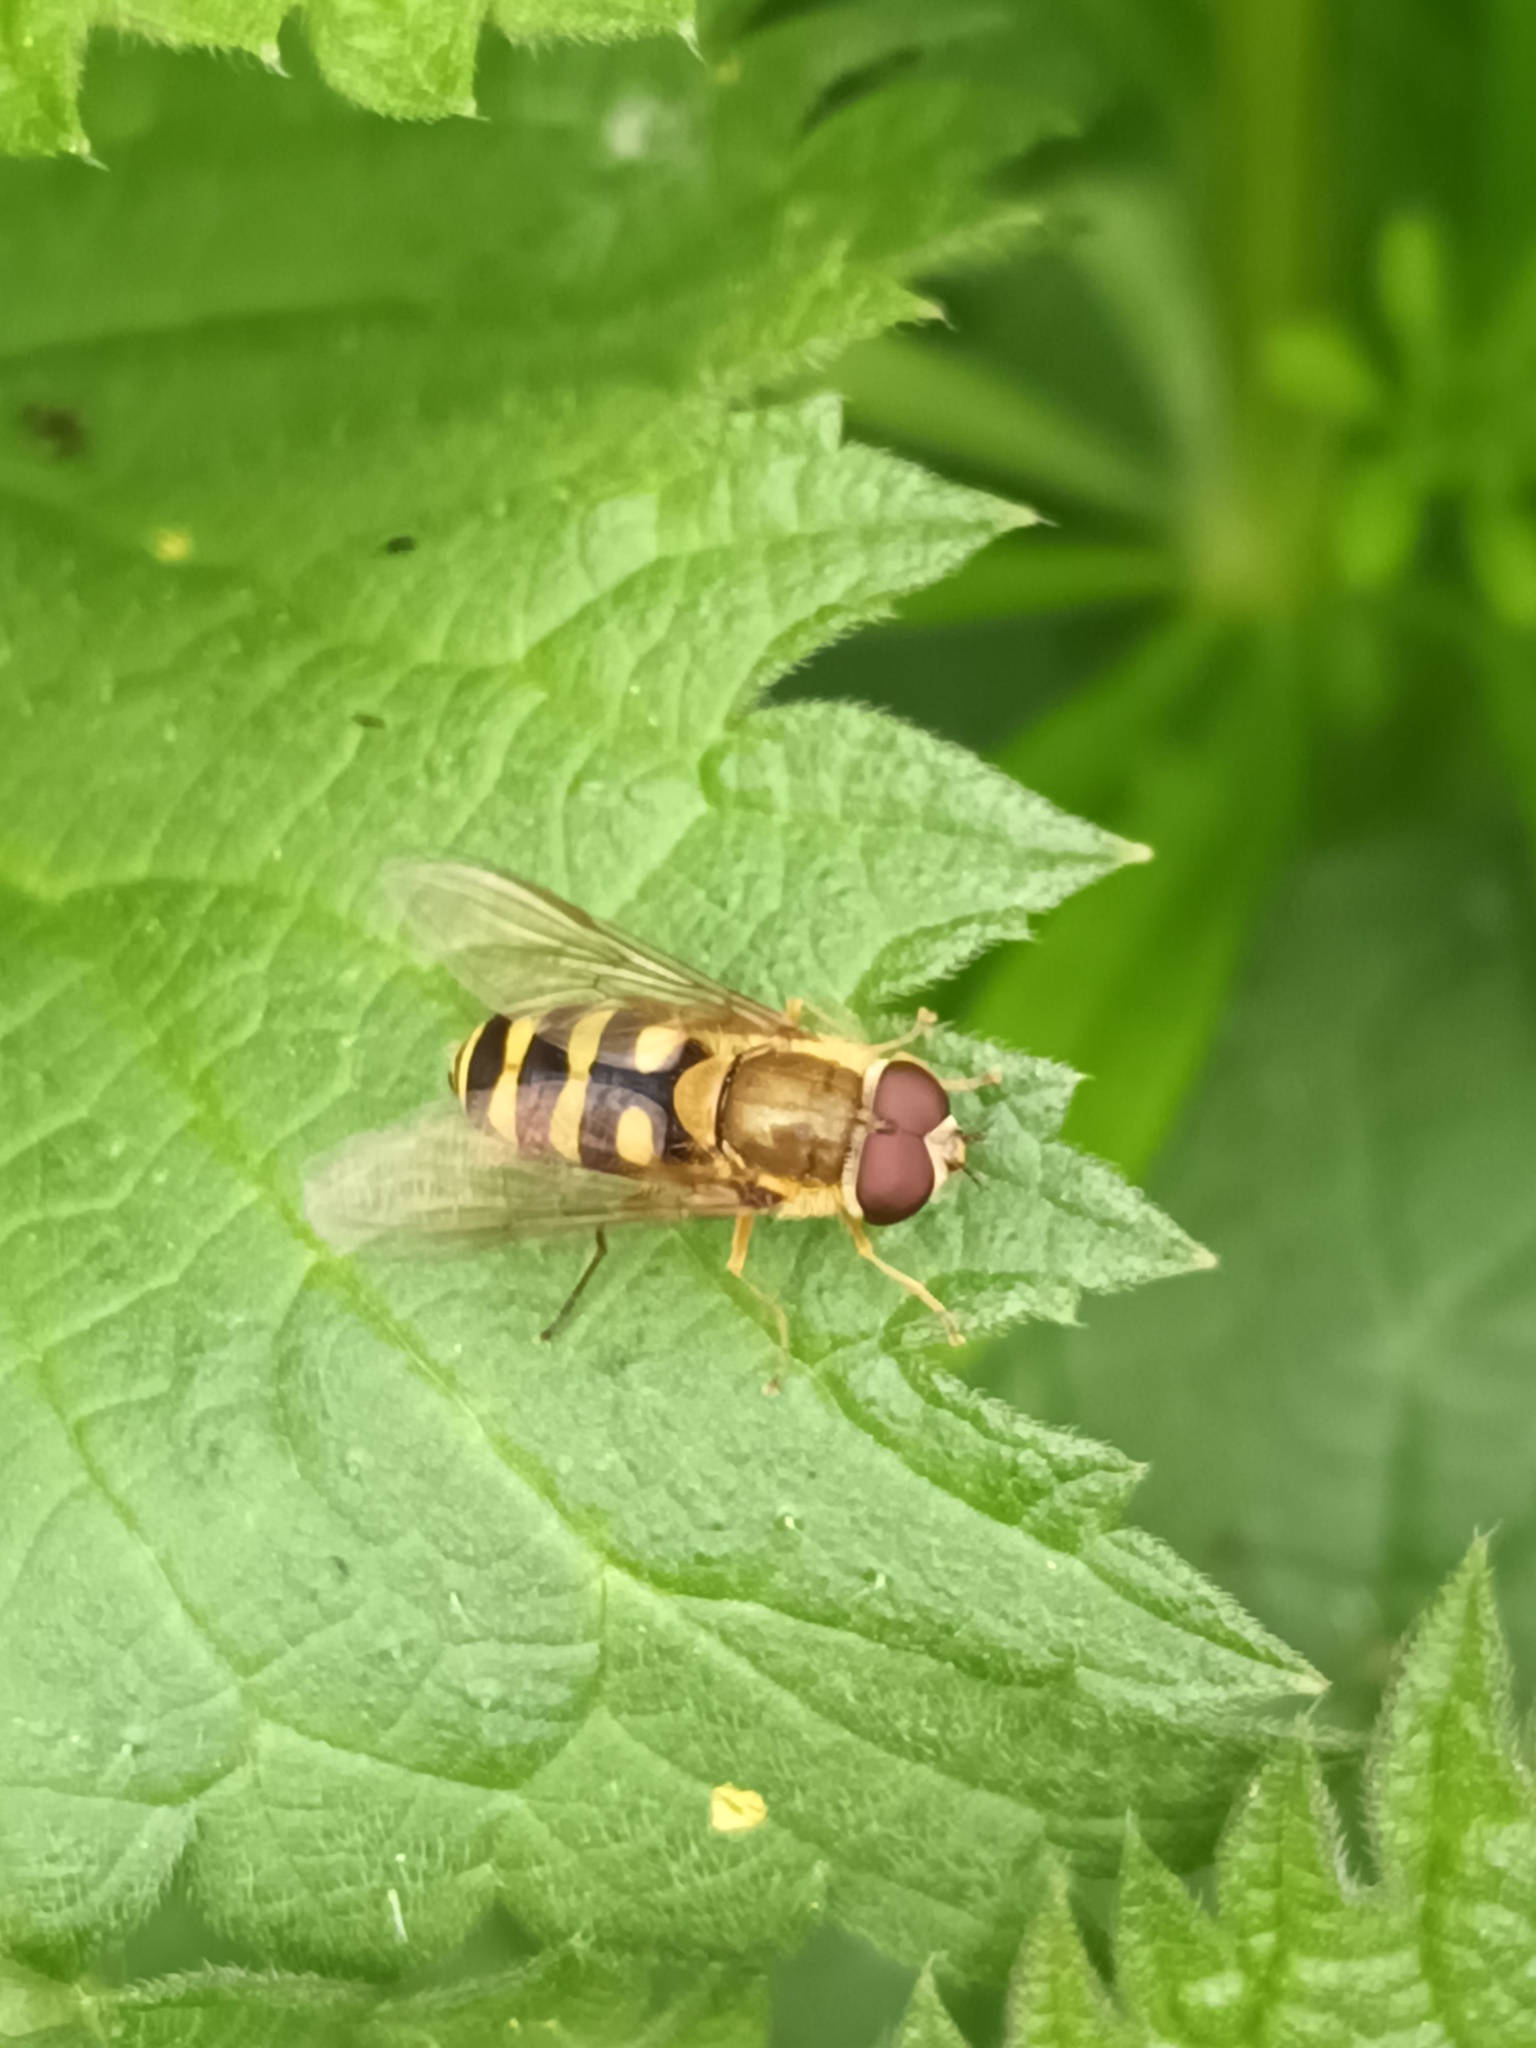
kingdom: Animalia
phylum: Arthropoda
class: Insecta
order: Diptera
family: Syrphidae
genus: Syrphus
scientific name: Syrphus
